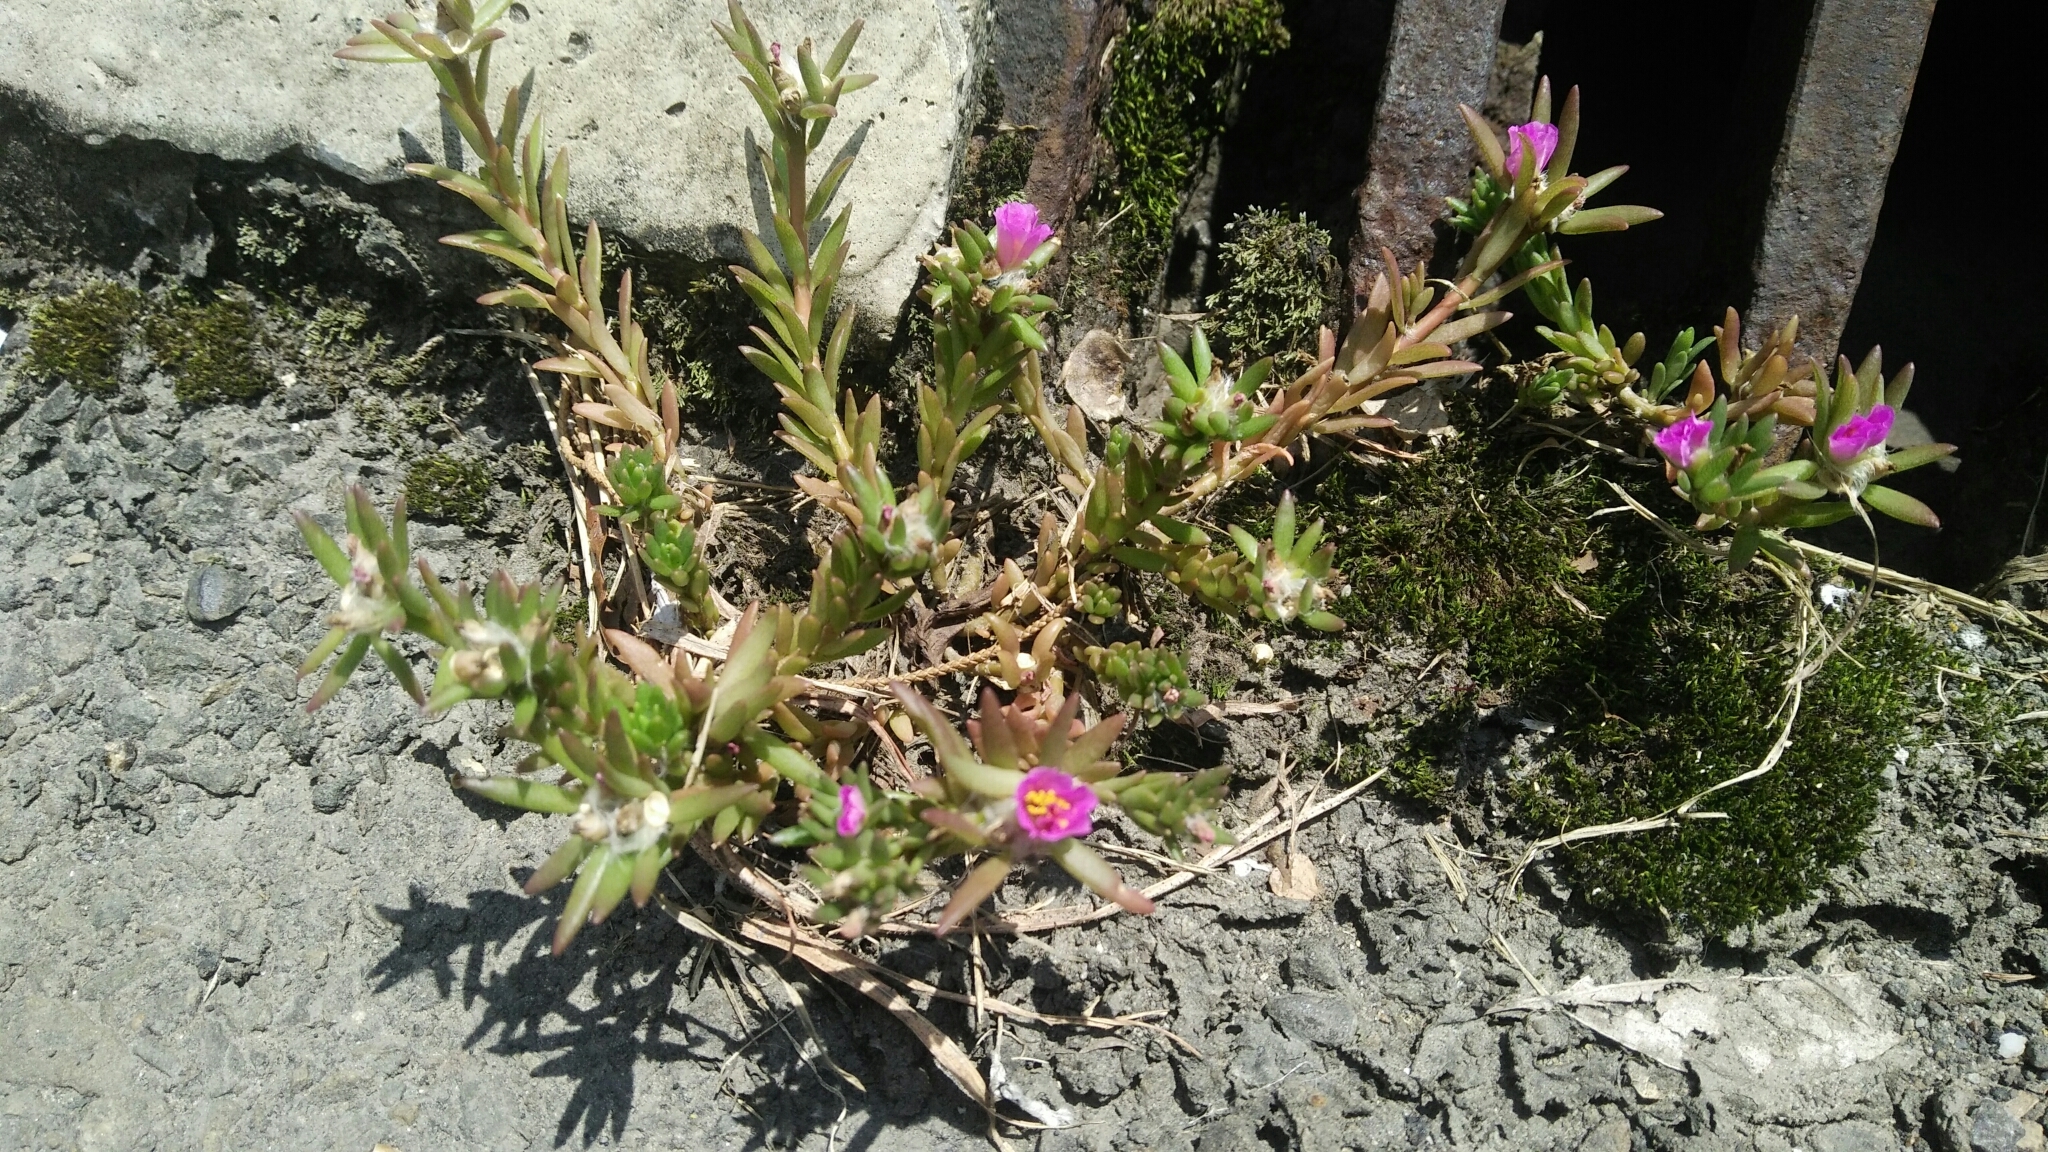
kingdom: Plantae
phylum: Tracheophyta
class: Magnoliopsida
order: Caryophyllales
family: Portulacaceae
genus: Portulaca
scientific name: Portulaca pilosa
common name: Kiss me quick
